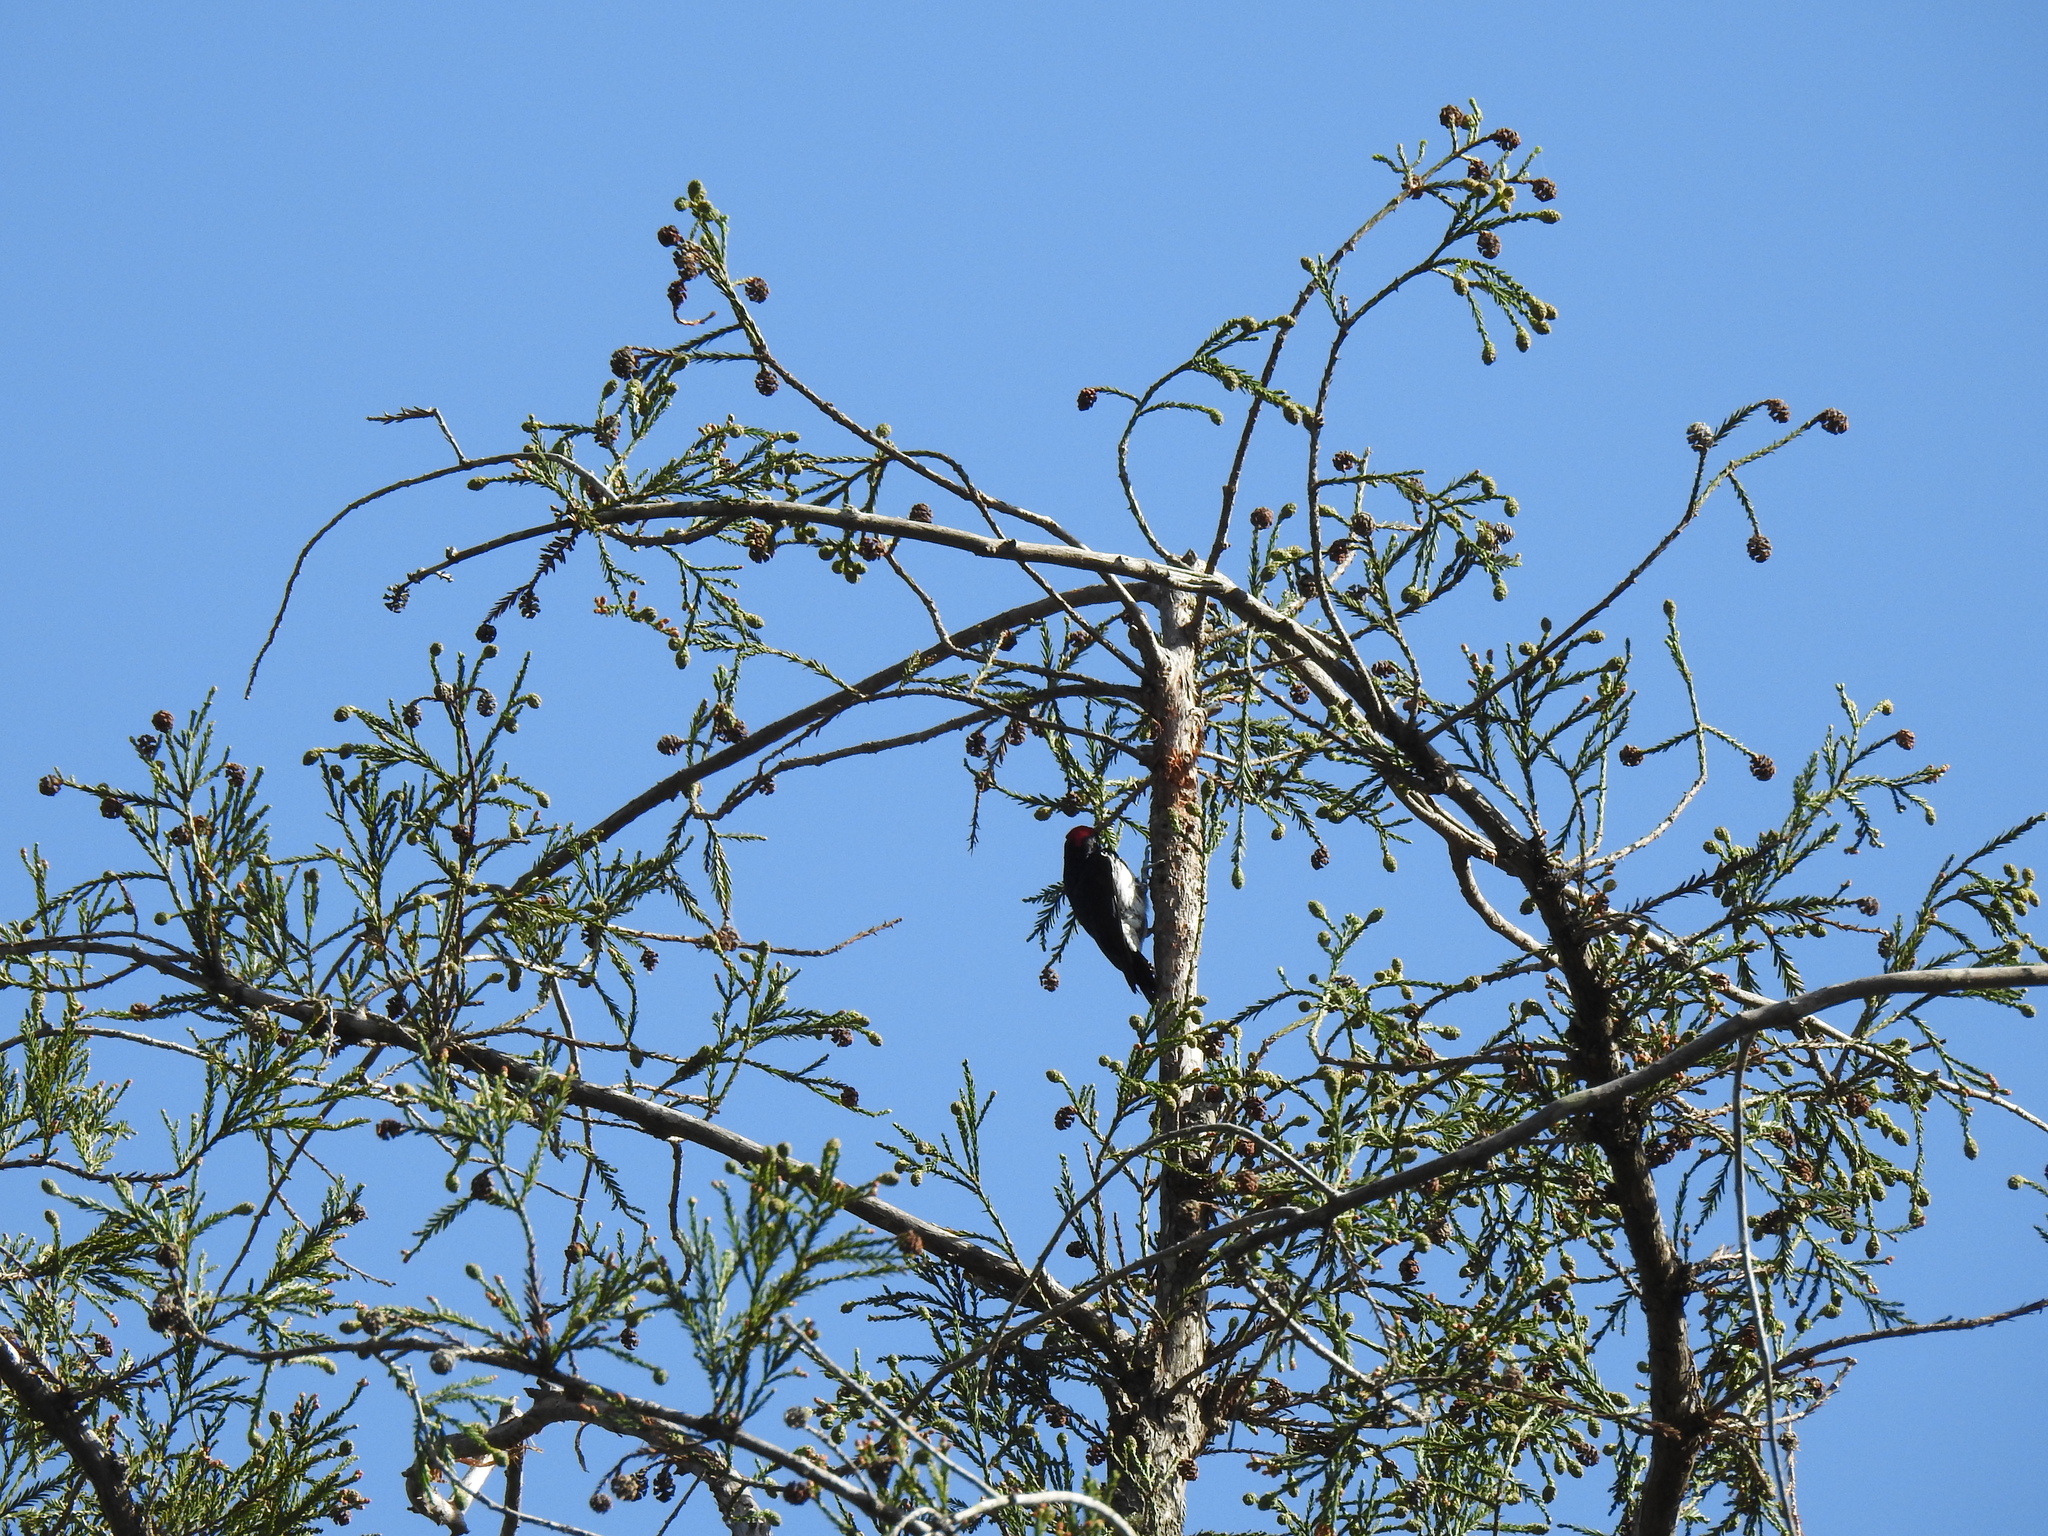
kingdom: Animalia
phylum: Chordata
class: Aves
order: Piciformes
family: Picidae
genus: Melanerpes
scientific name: Melanerpes formicivorus
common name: Acorn woodpecker
